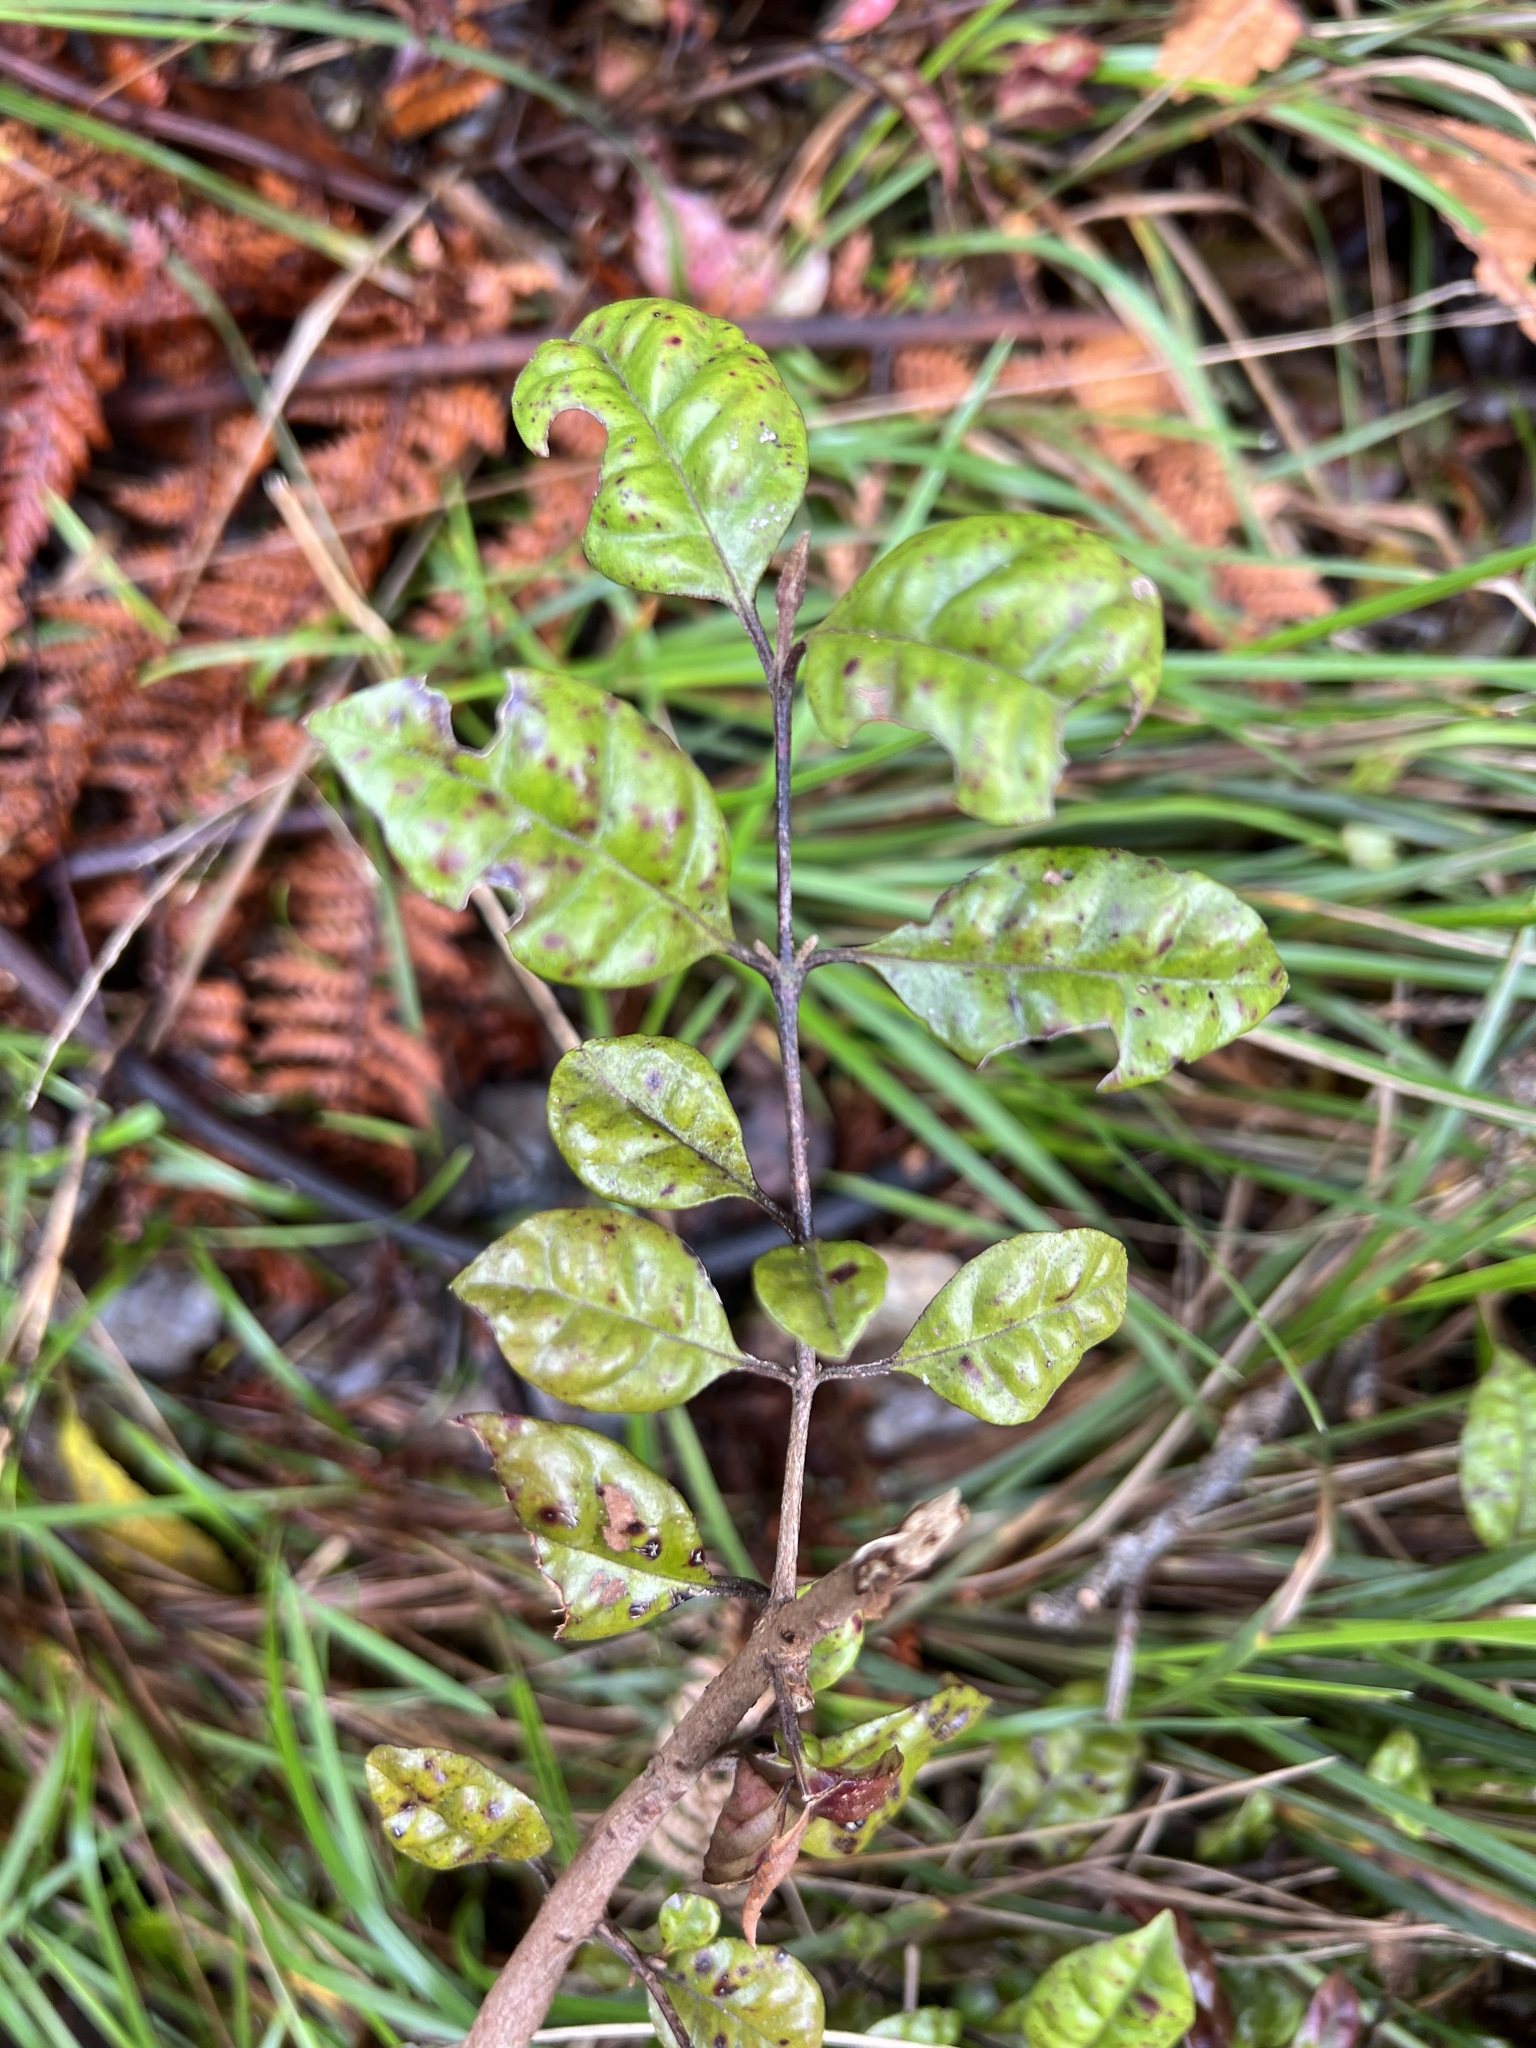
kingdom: Plantae
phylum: Tracheophyta
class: Magnoliopsida
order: Myrtales
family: Myrtaceae
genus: Lophomyrtus
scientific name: Lophomyrtus bullata
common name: Rama rama
